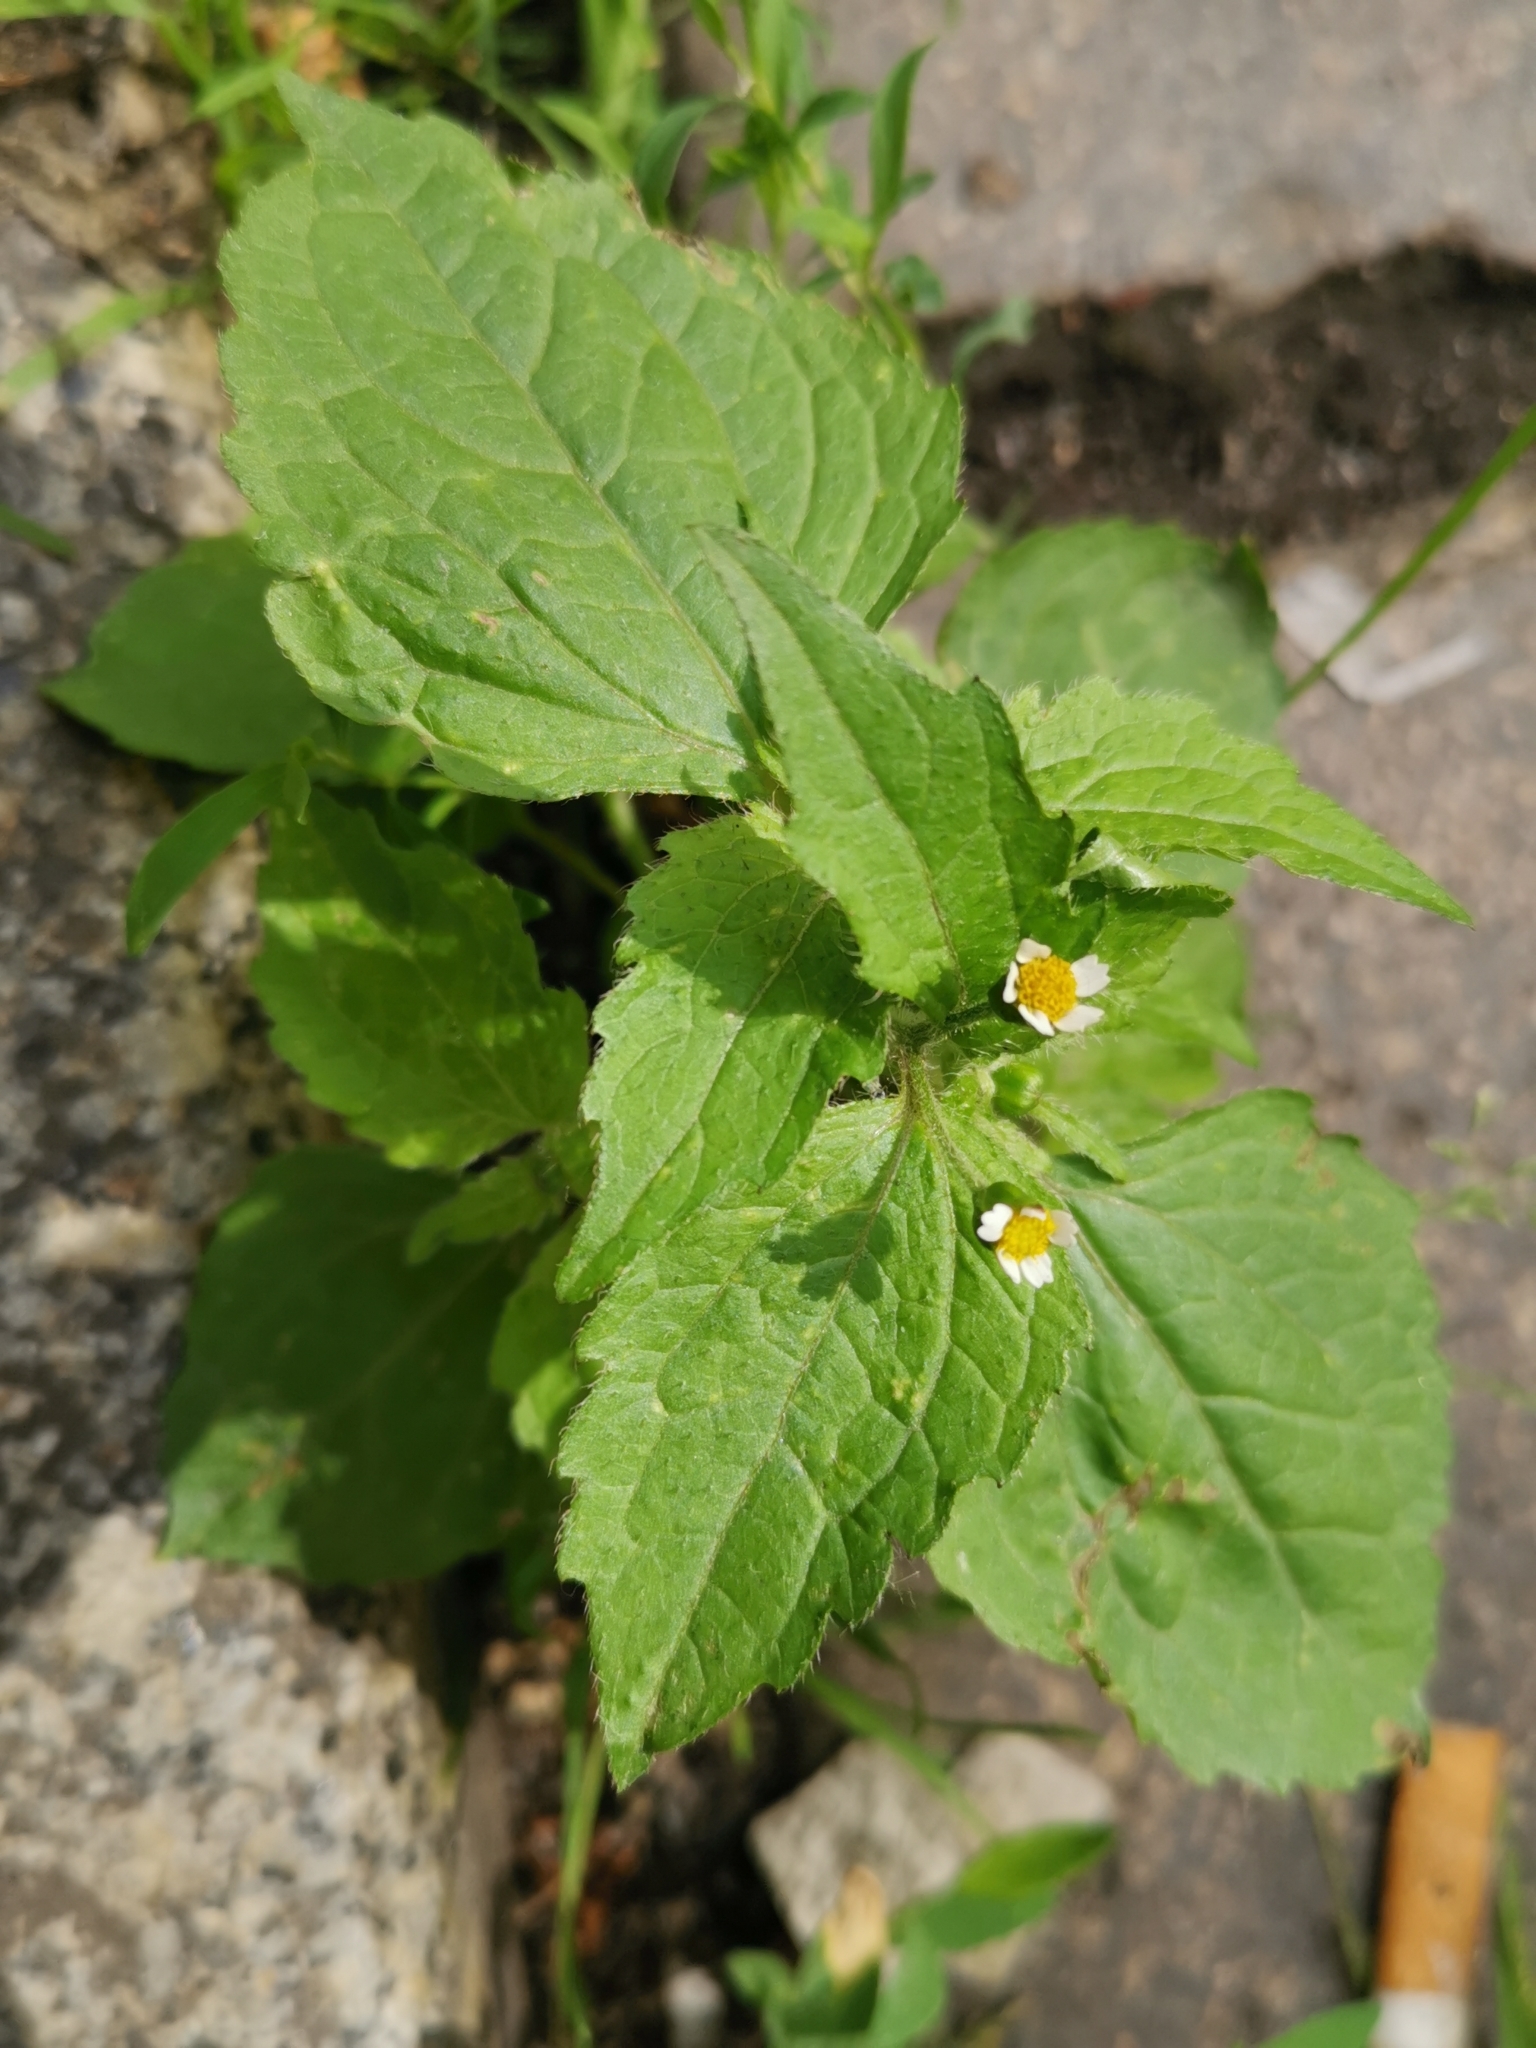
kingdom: Plantae
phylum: Tracheophyta
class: Magnoliopsida
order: Asterales
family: Asteraceae
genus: Galinsoga
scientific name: Galinsoga quadriradiata
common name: Shaggy soldier
